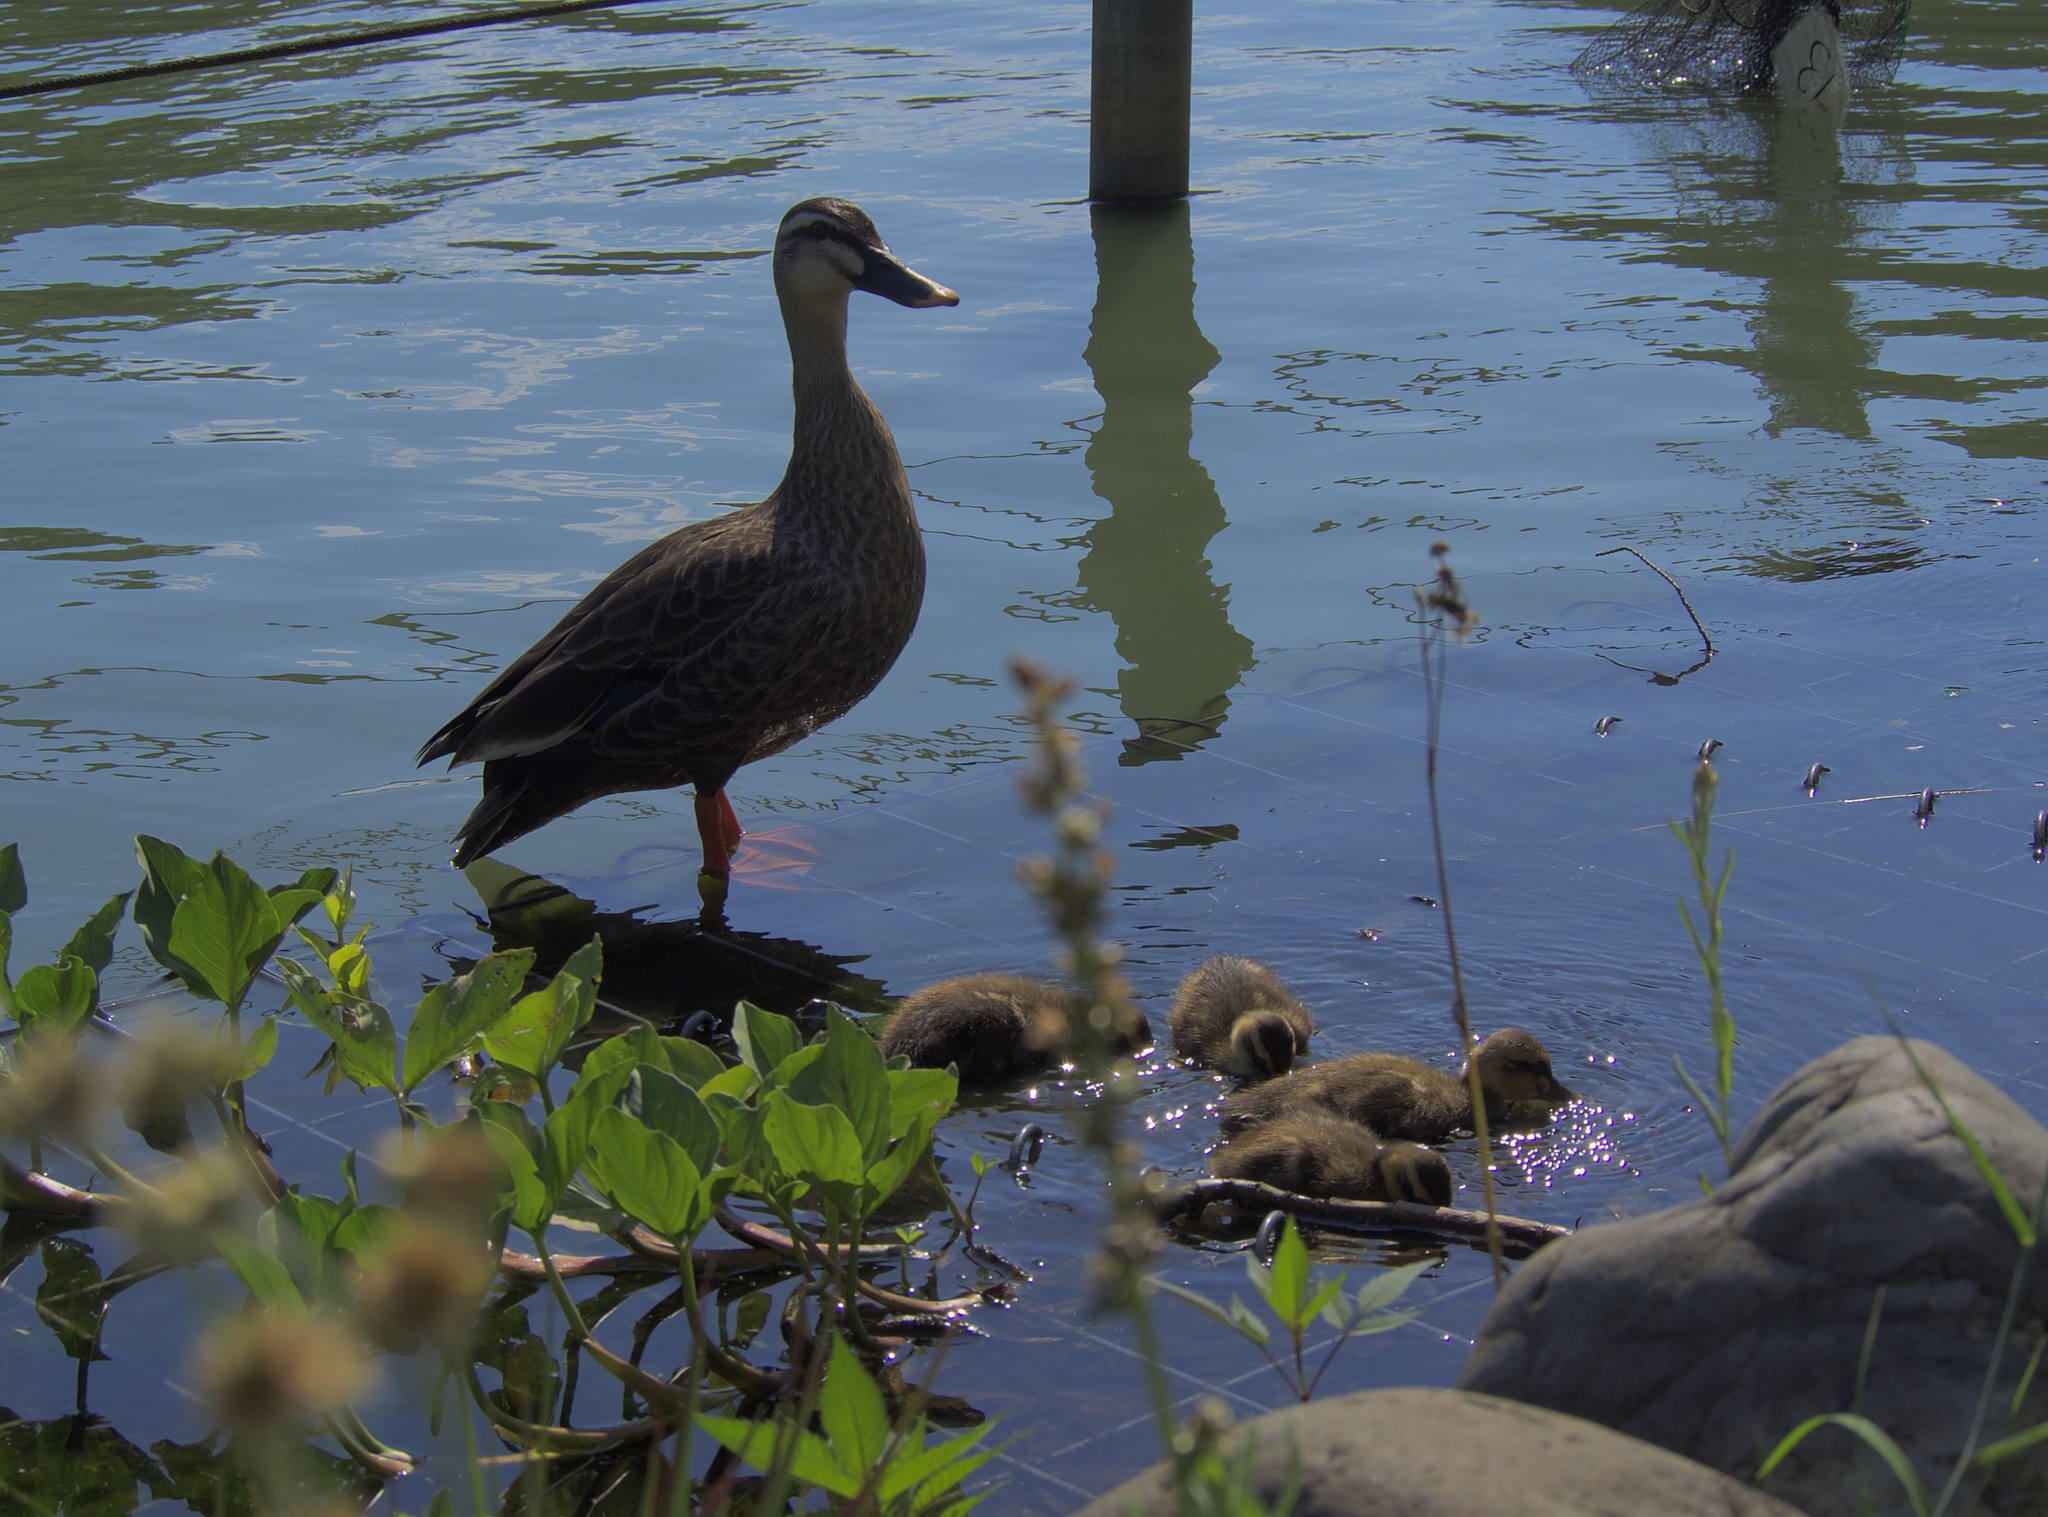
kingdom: Animalia
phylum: Chordata
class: Aves
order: Anseriformes
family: Anatidae
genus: Anas
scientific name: Anas zonorhyncha
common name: Eastern spot-billed duck
